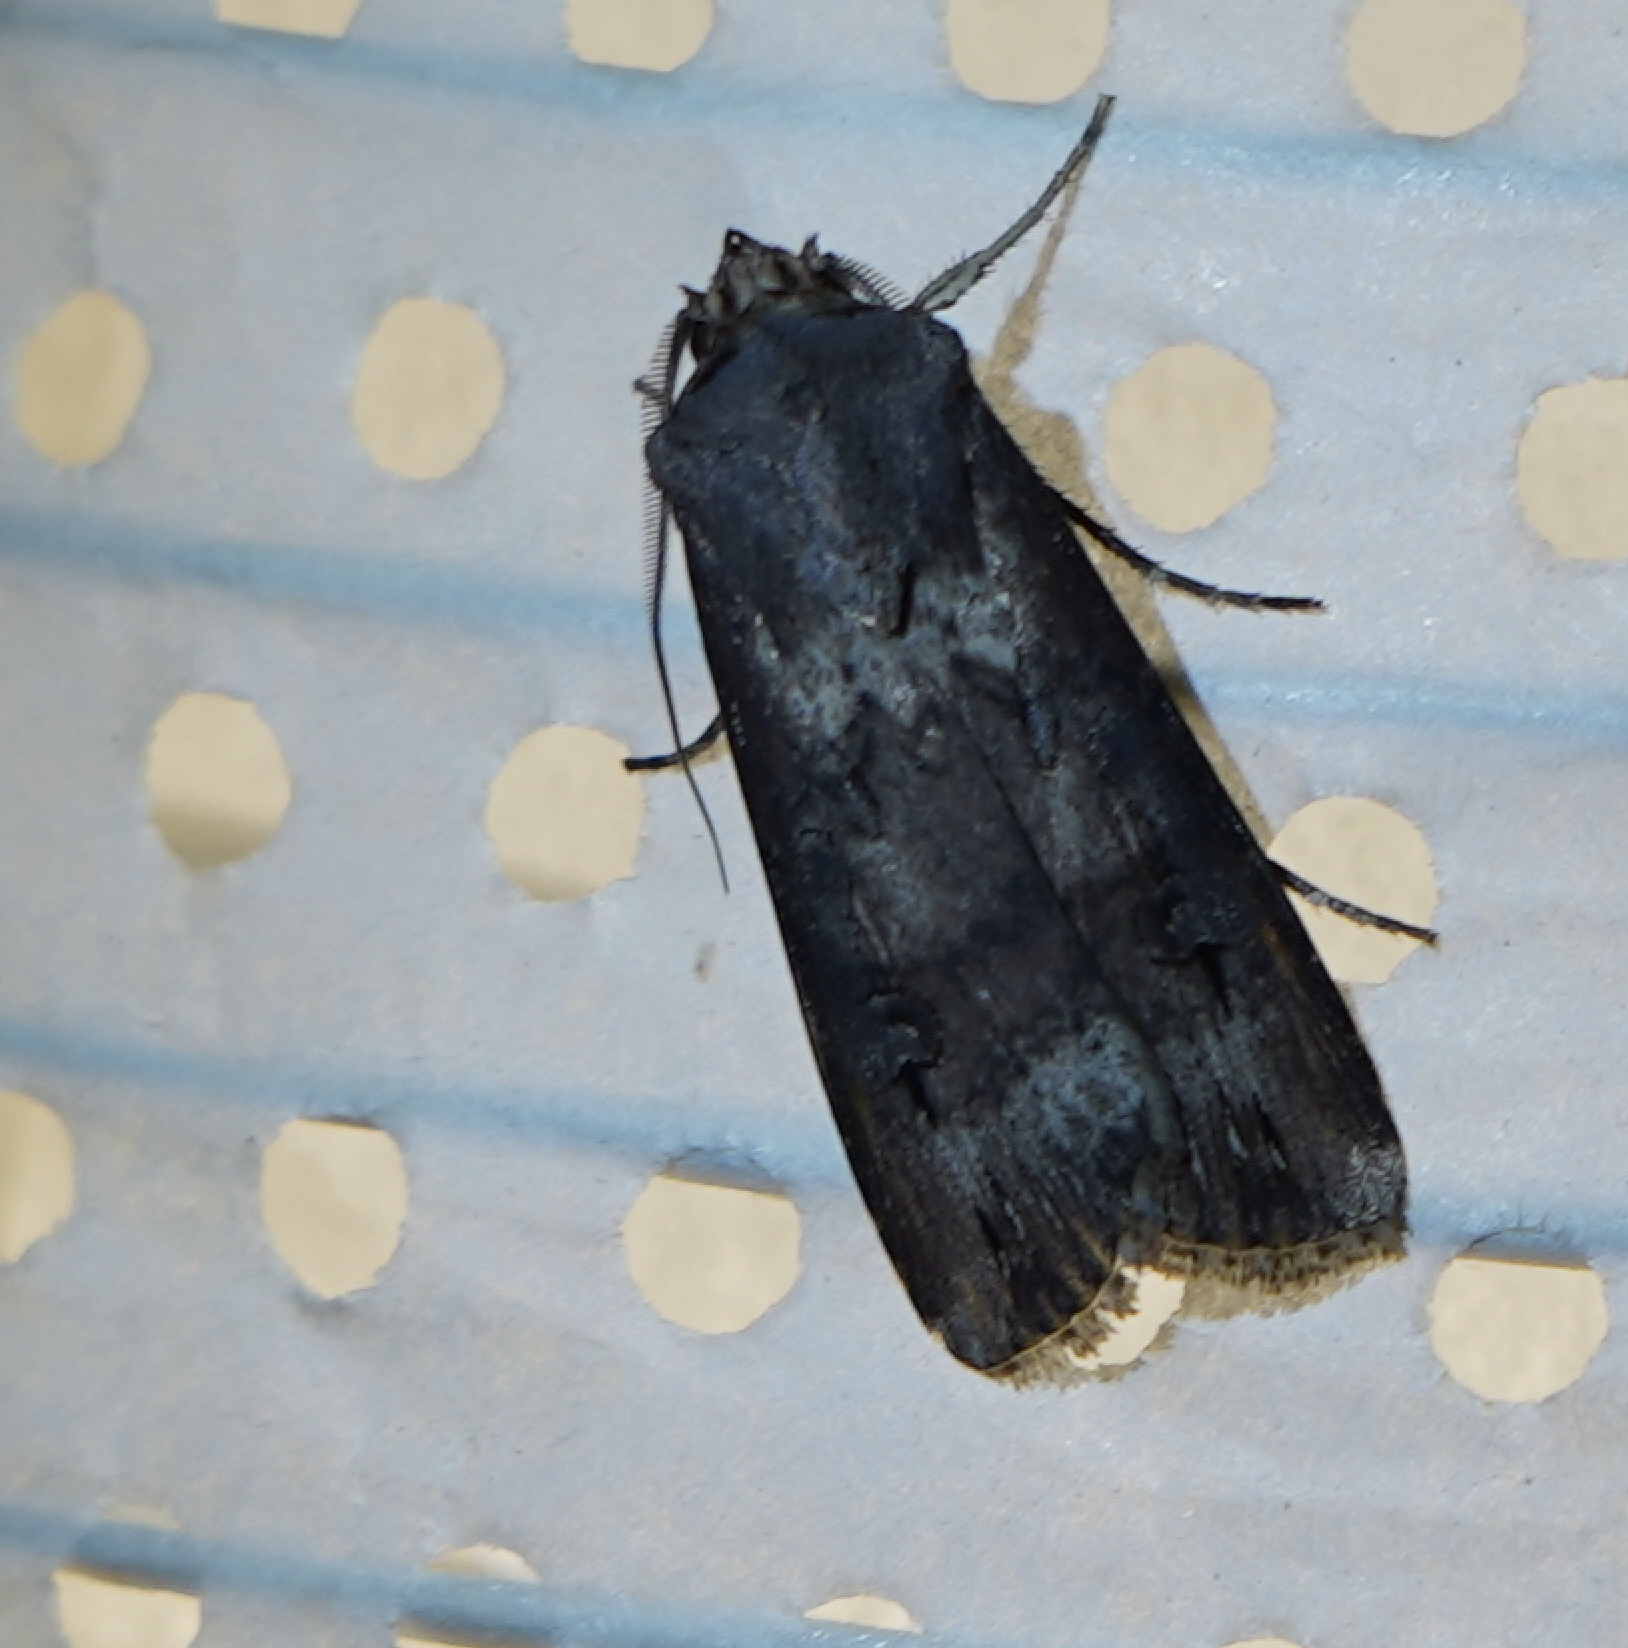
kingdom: Animalia
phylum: Arthropoda
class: Insecta
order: Lepidoptera
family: Noctuidae
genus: Agrotis
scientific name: Agrotis ipsilon
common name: Dark sword-grass
